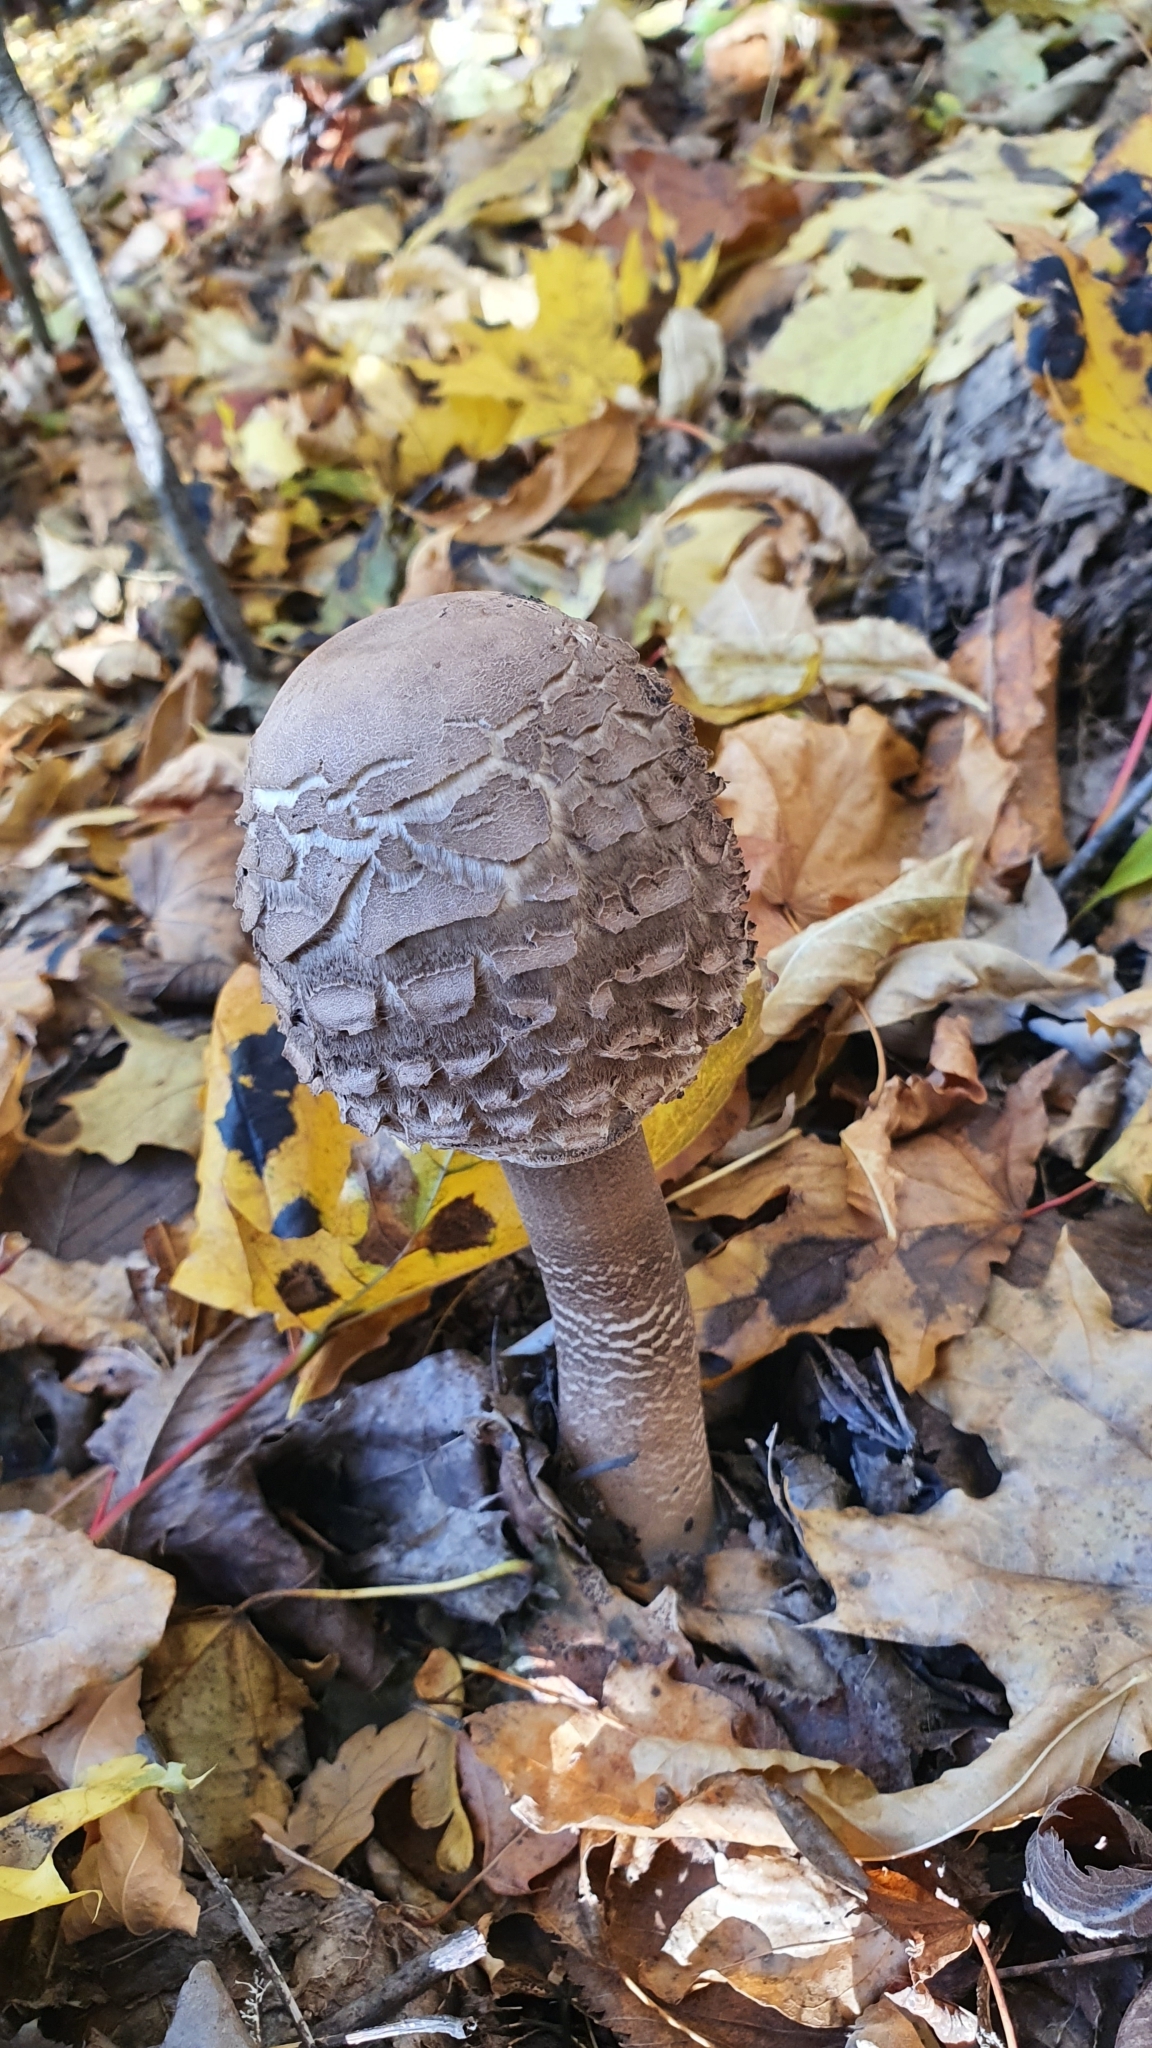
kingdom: Fungi
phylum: Basidiomycota
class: Agaricomycetes
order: Agaricales
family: Agaricaceae
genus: Macrolepiota
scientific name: Macrolepiota procera
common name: Parasol
